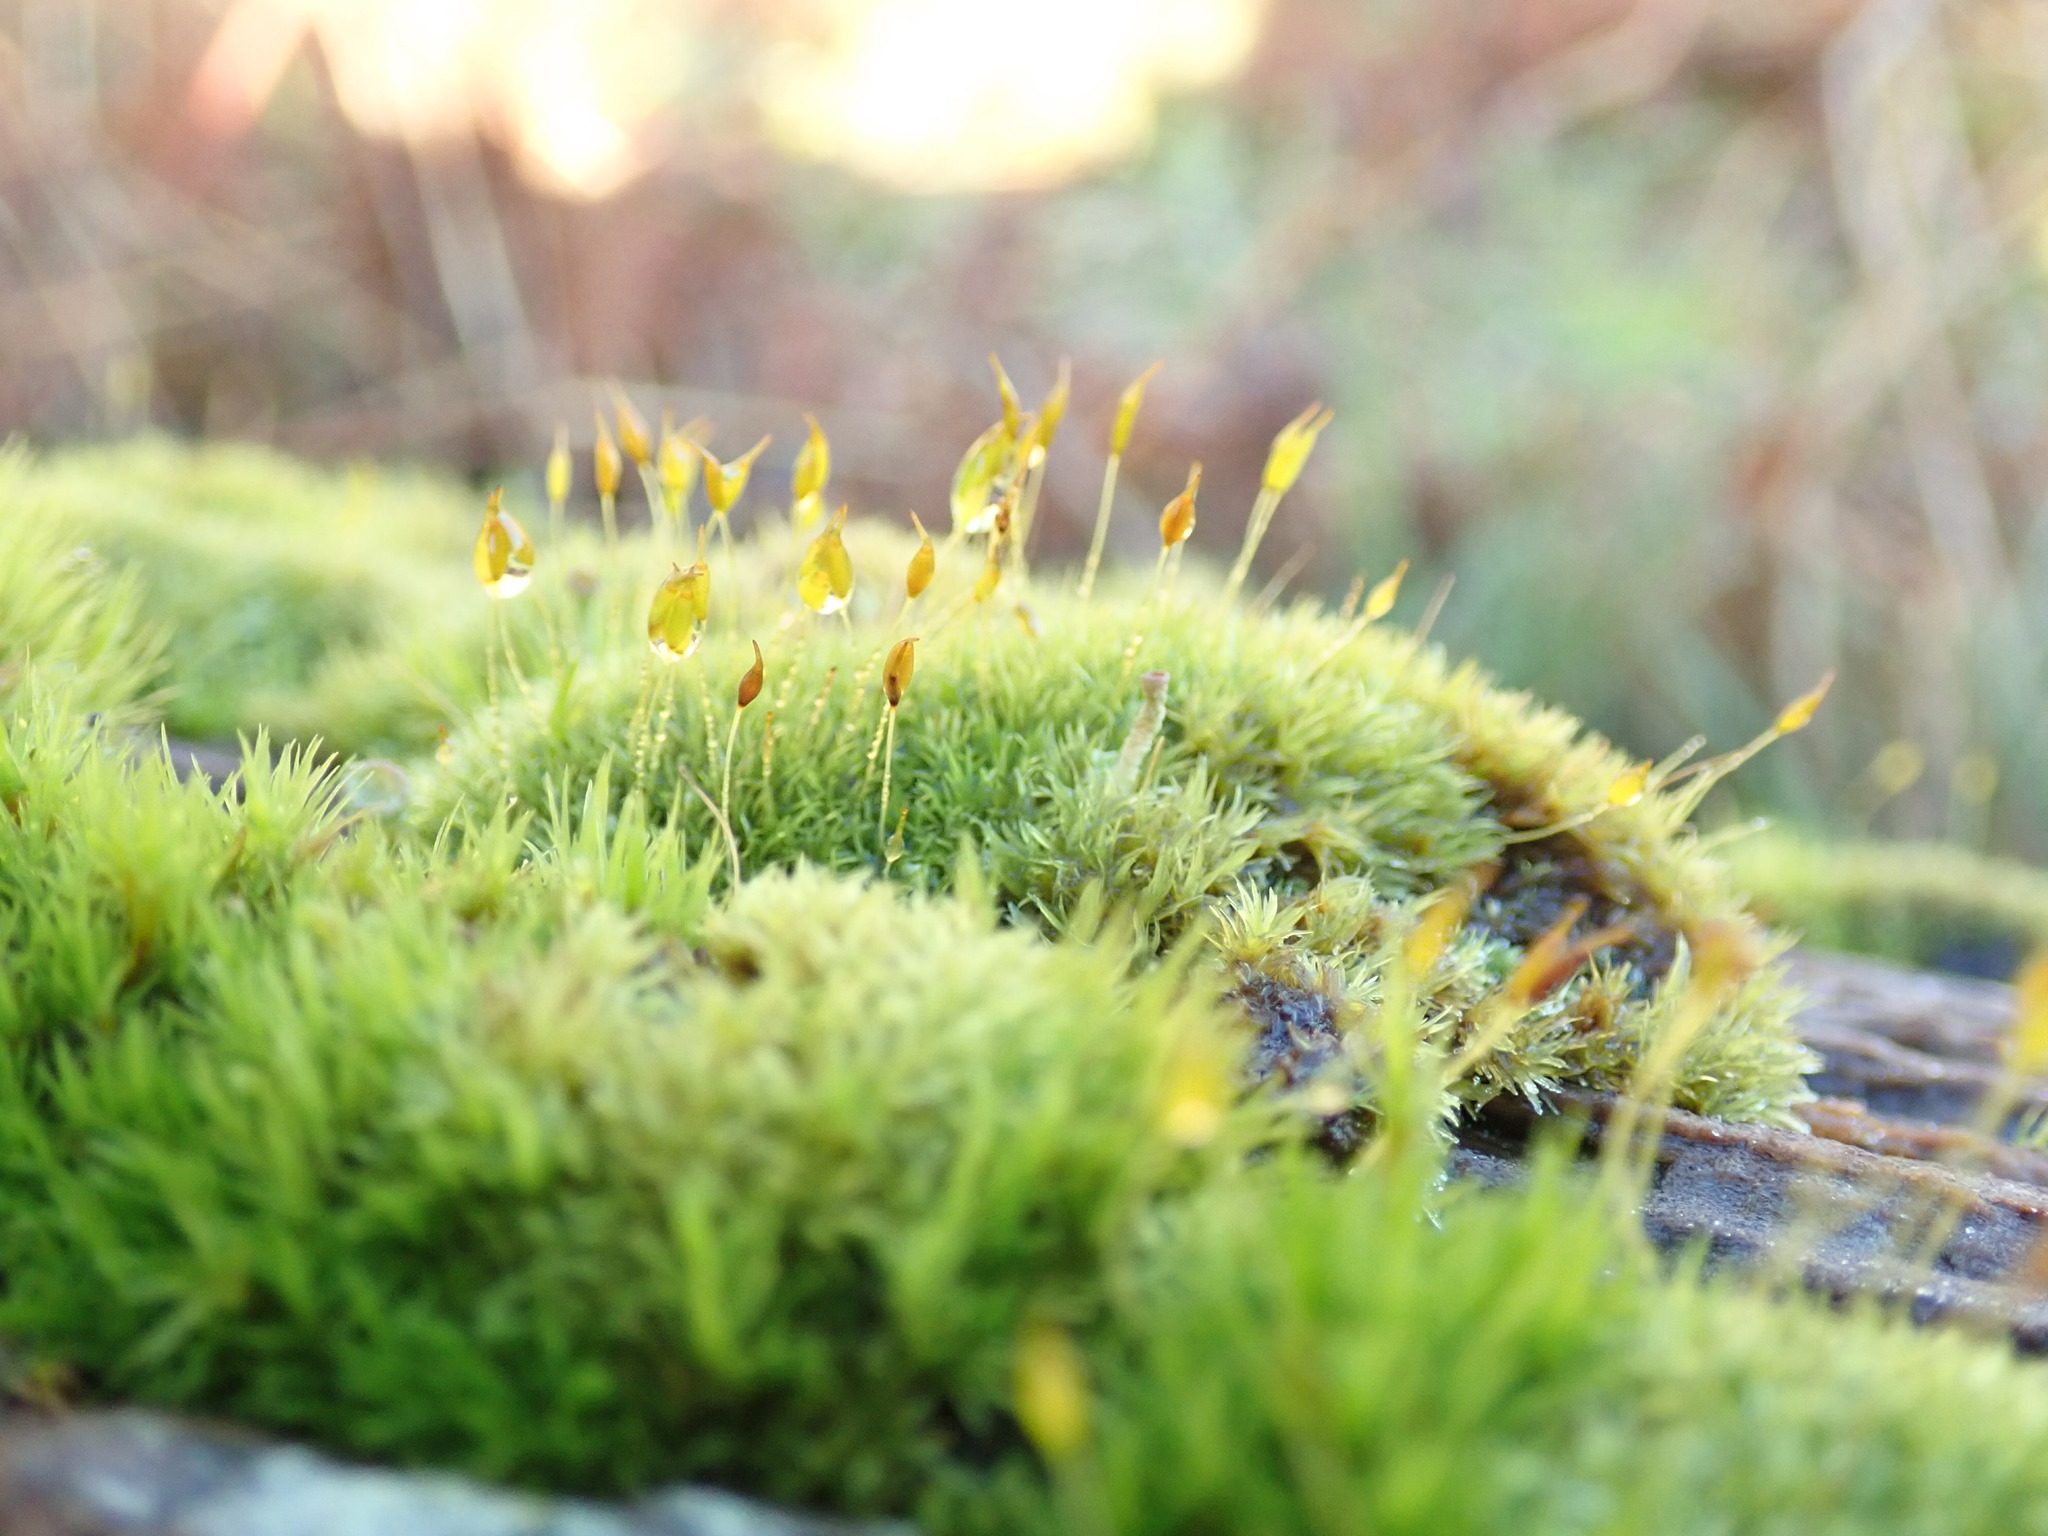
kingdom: Plantae
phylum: Bryophyta
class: Bryopsida
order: Dicranales
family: Rhabdoweisiaceae
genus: Dicranoweisia
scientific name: Dicranoweisia cirrata
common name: Common pincushion
